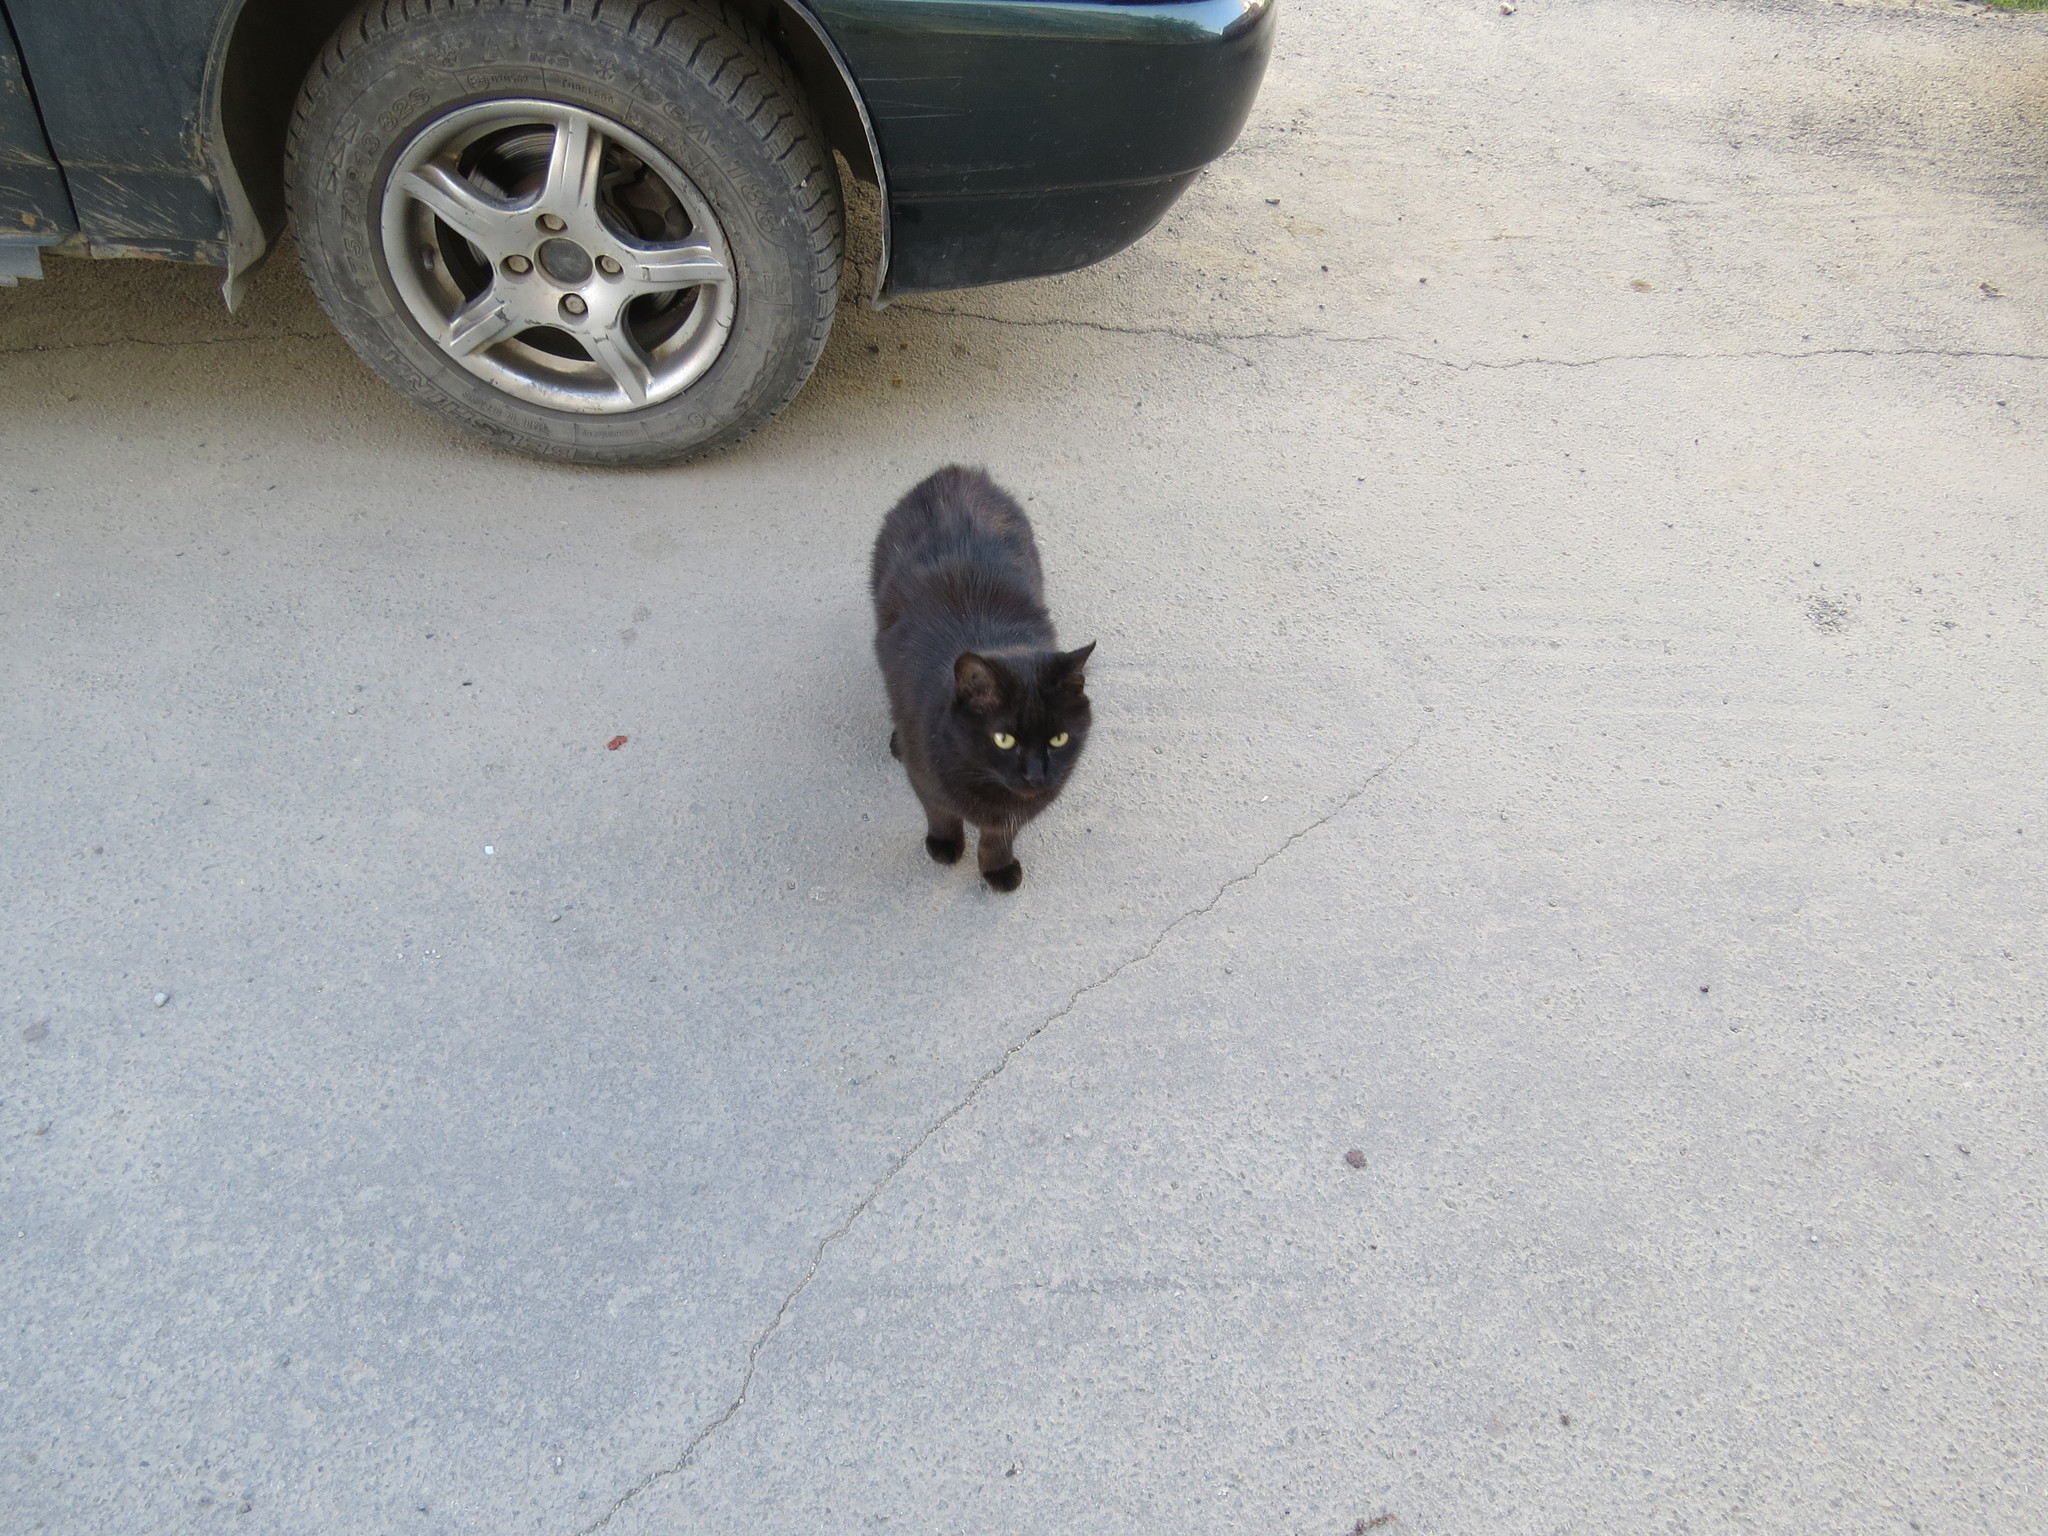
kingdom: Animalia
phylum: Chordata
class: Mammalia
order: Carnivora
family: Felidae
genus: Felis
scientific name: Felis catus
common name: Domestic cat
